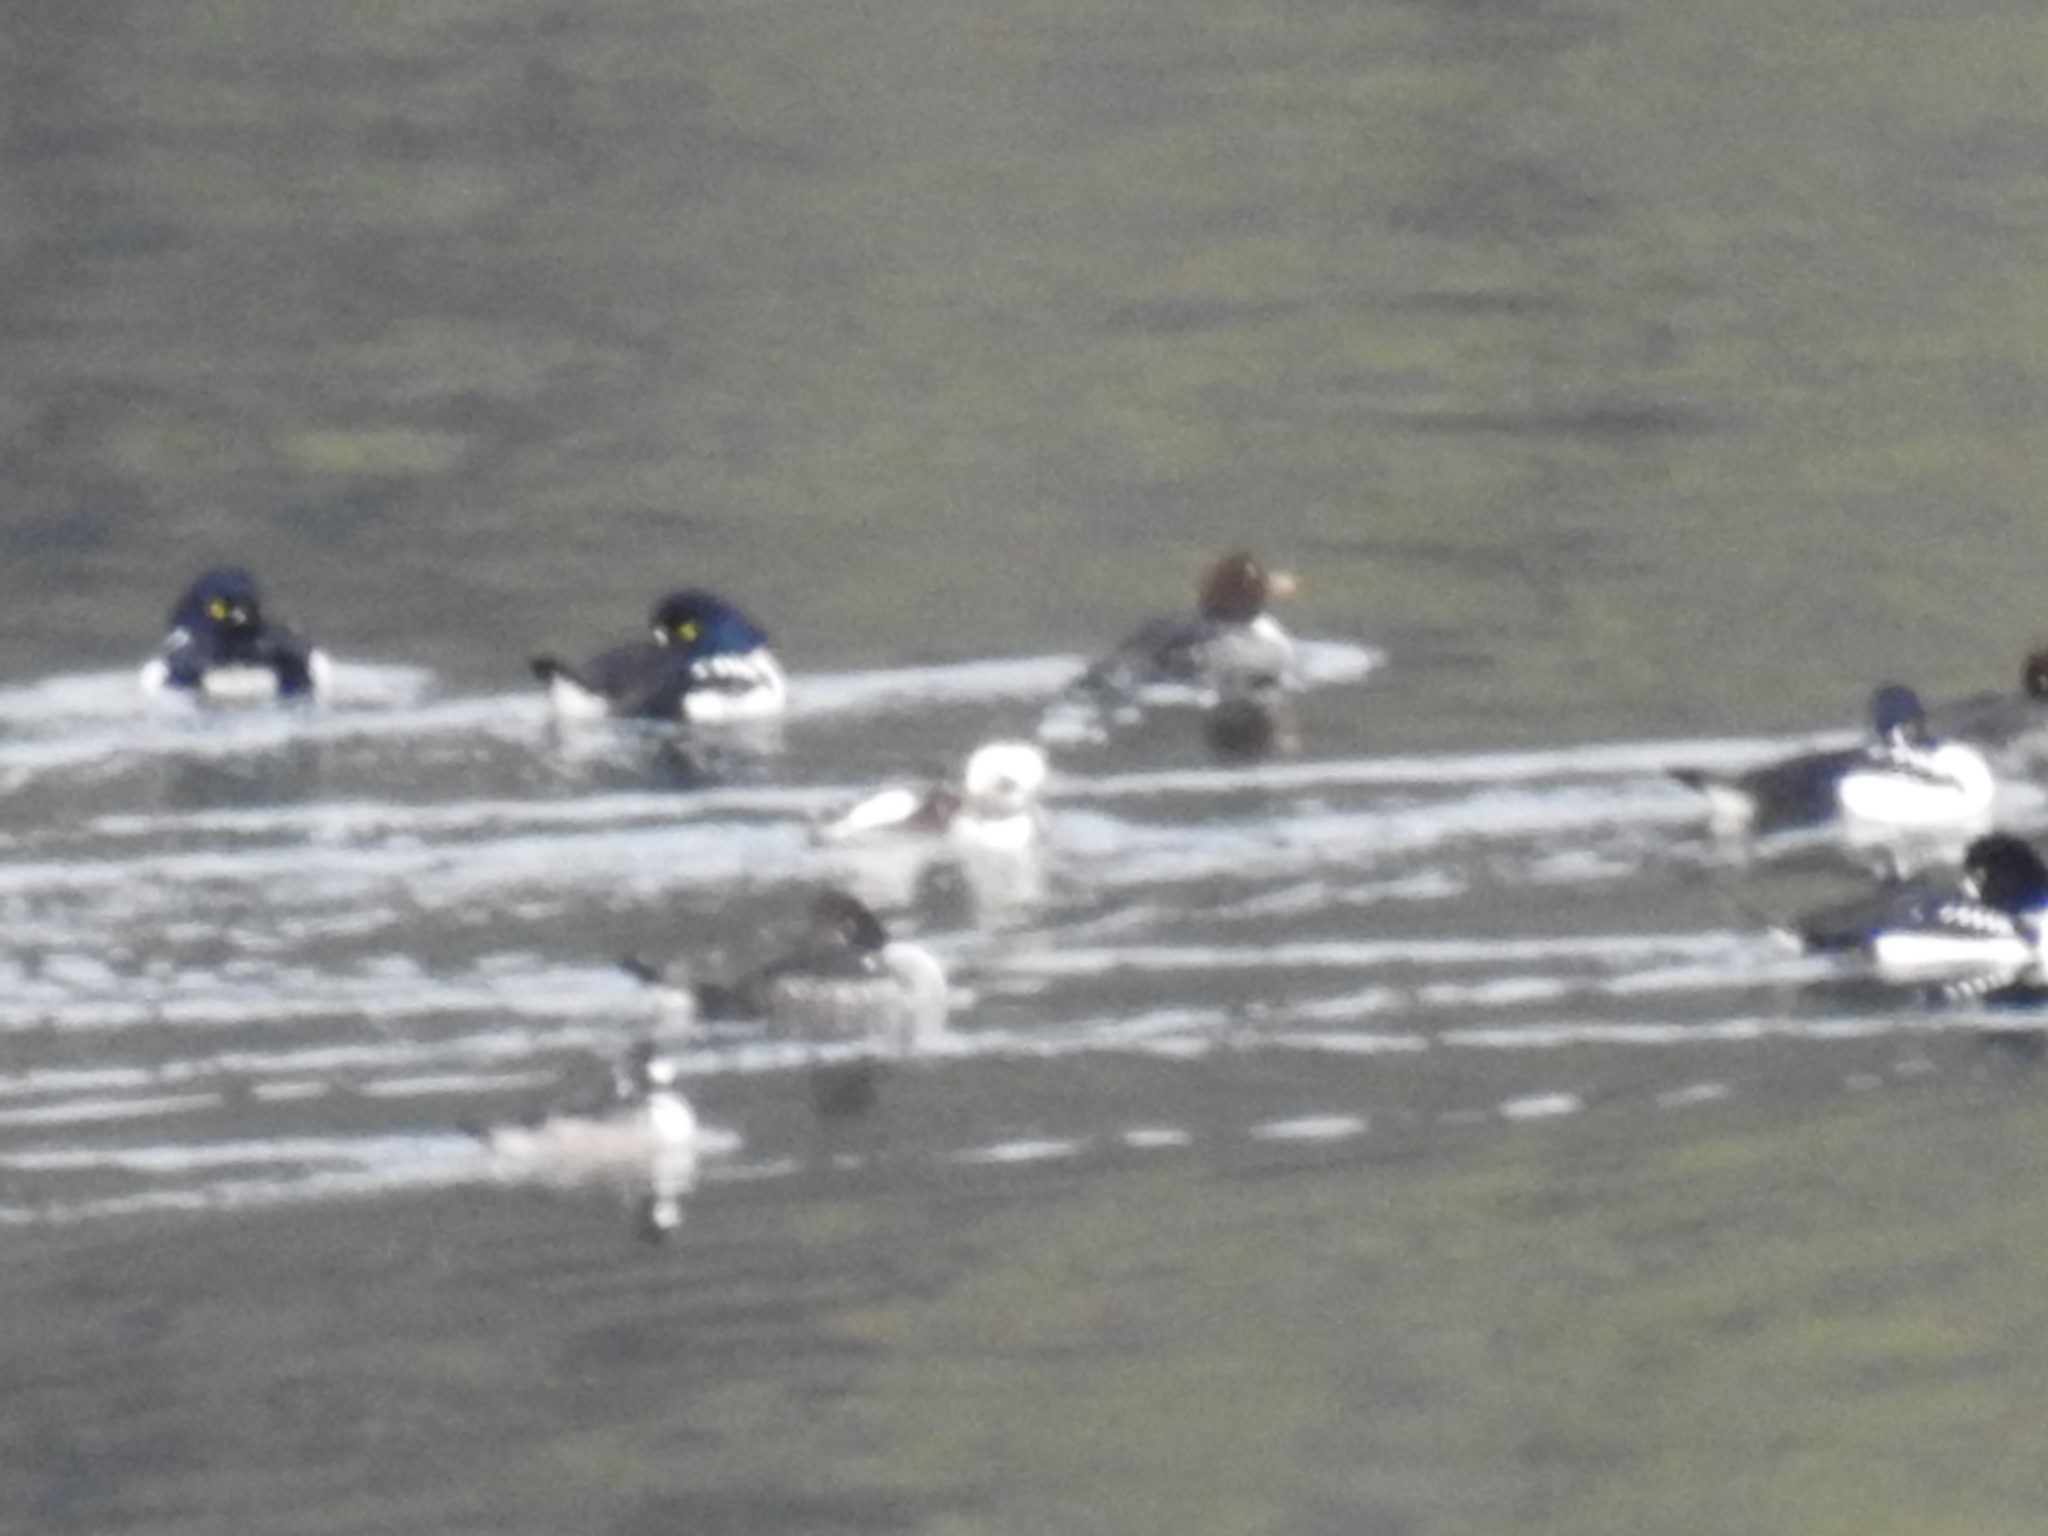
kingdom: Animalia
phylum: Chordata
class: Aves
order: Anseriformes
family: Anatidae
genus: Bucephala
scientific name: Bucephala islandica
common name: Barrow's goldeneye
